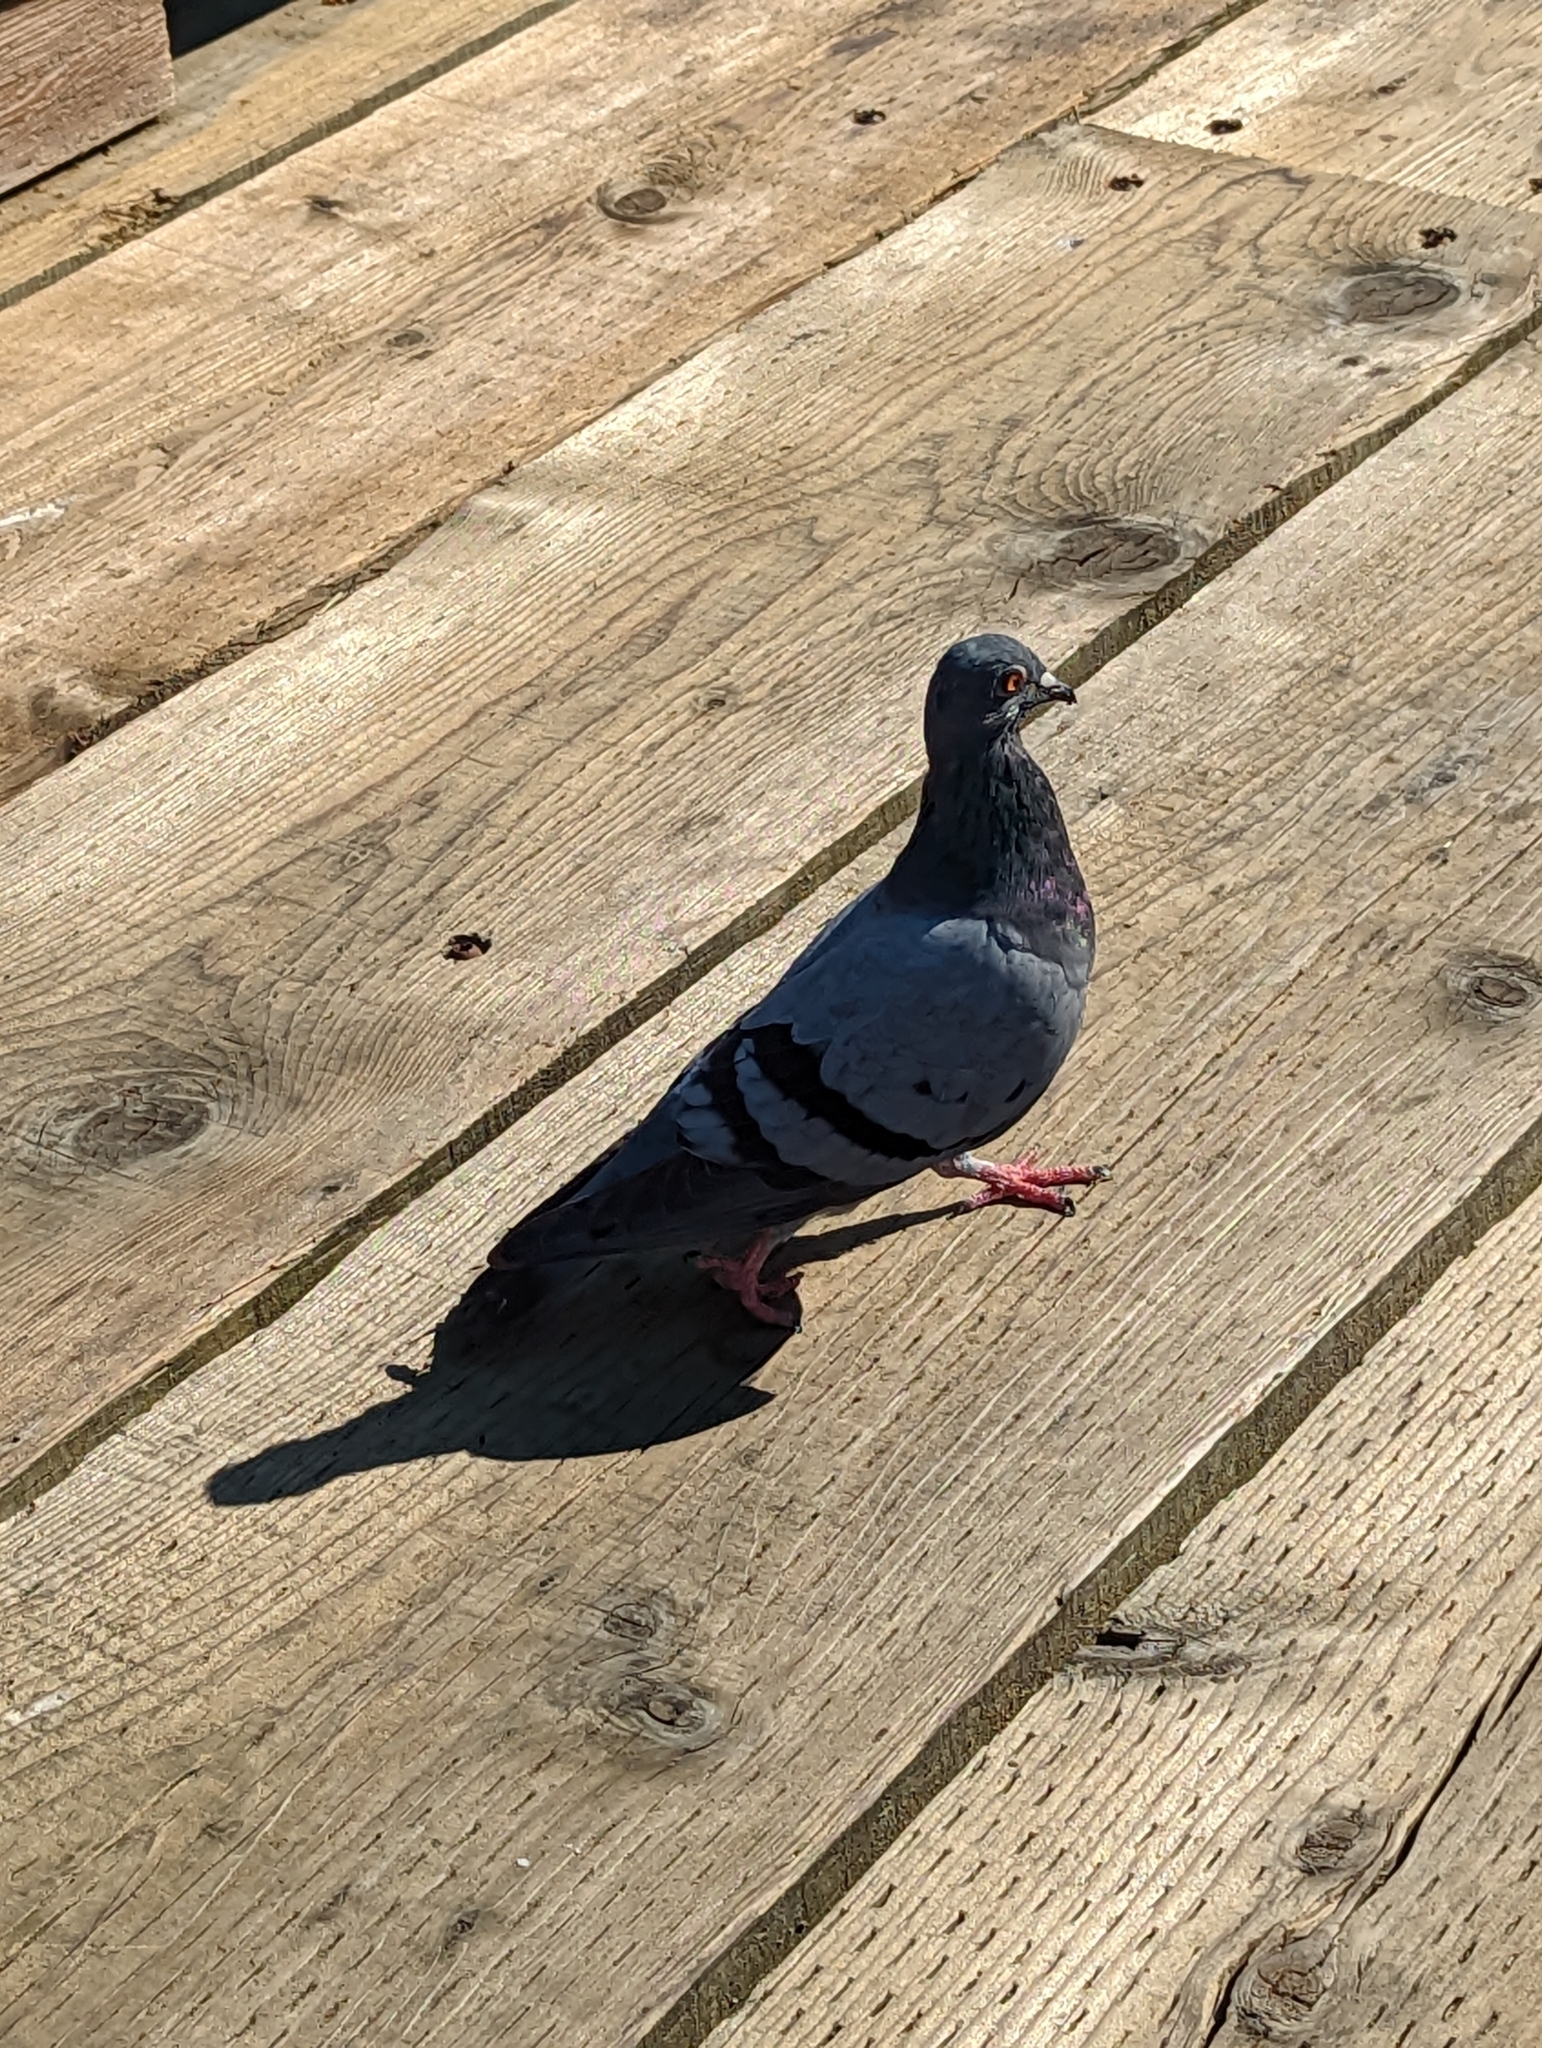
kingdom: Animalia
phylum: Chordata
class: Aves
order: Columbiformes
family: Columbidae
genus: Columba
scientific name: Columba livia
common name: Rock pigeon
